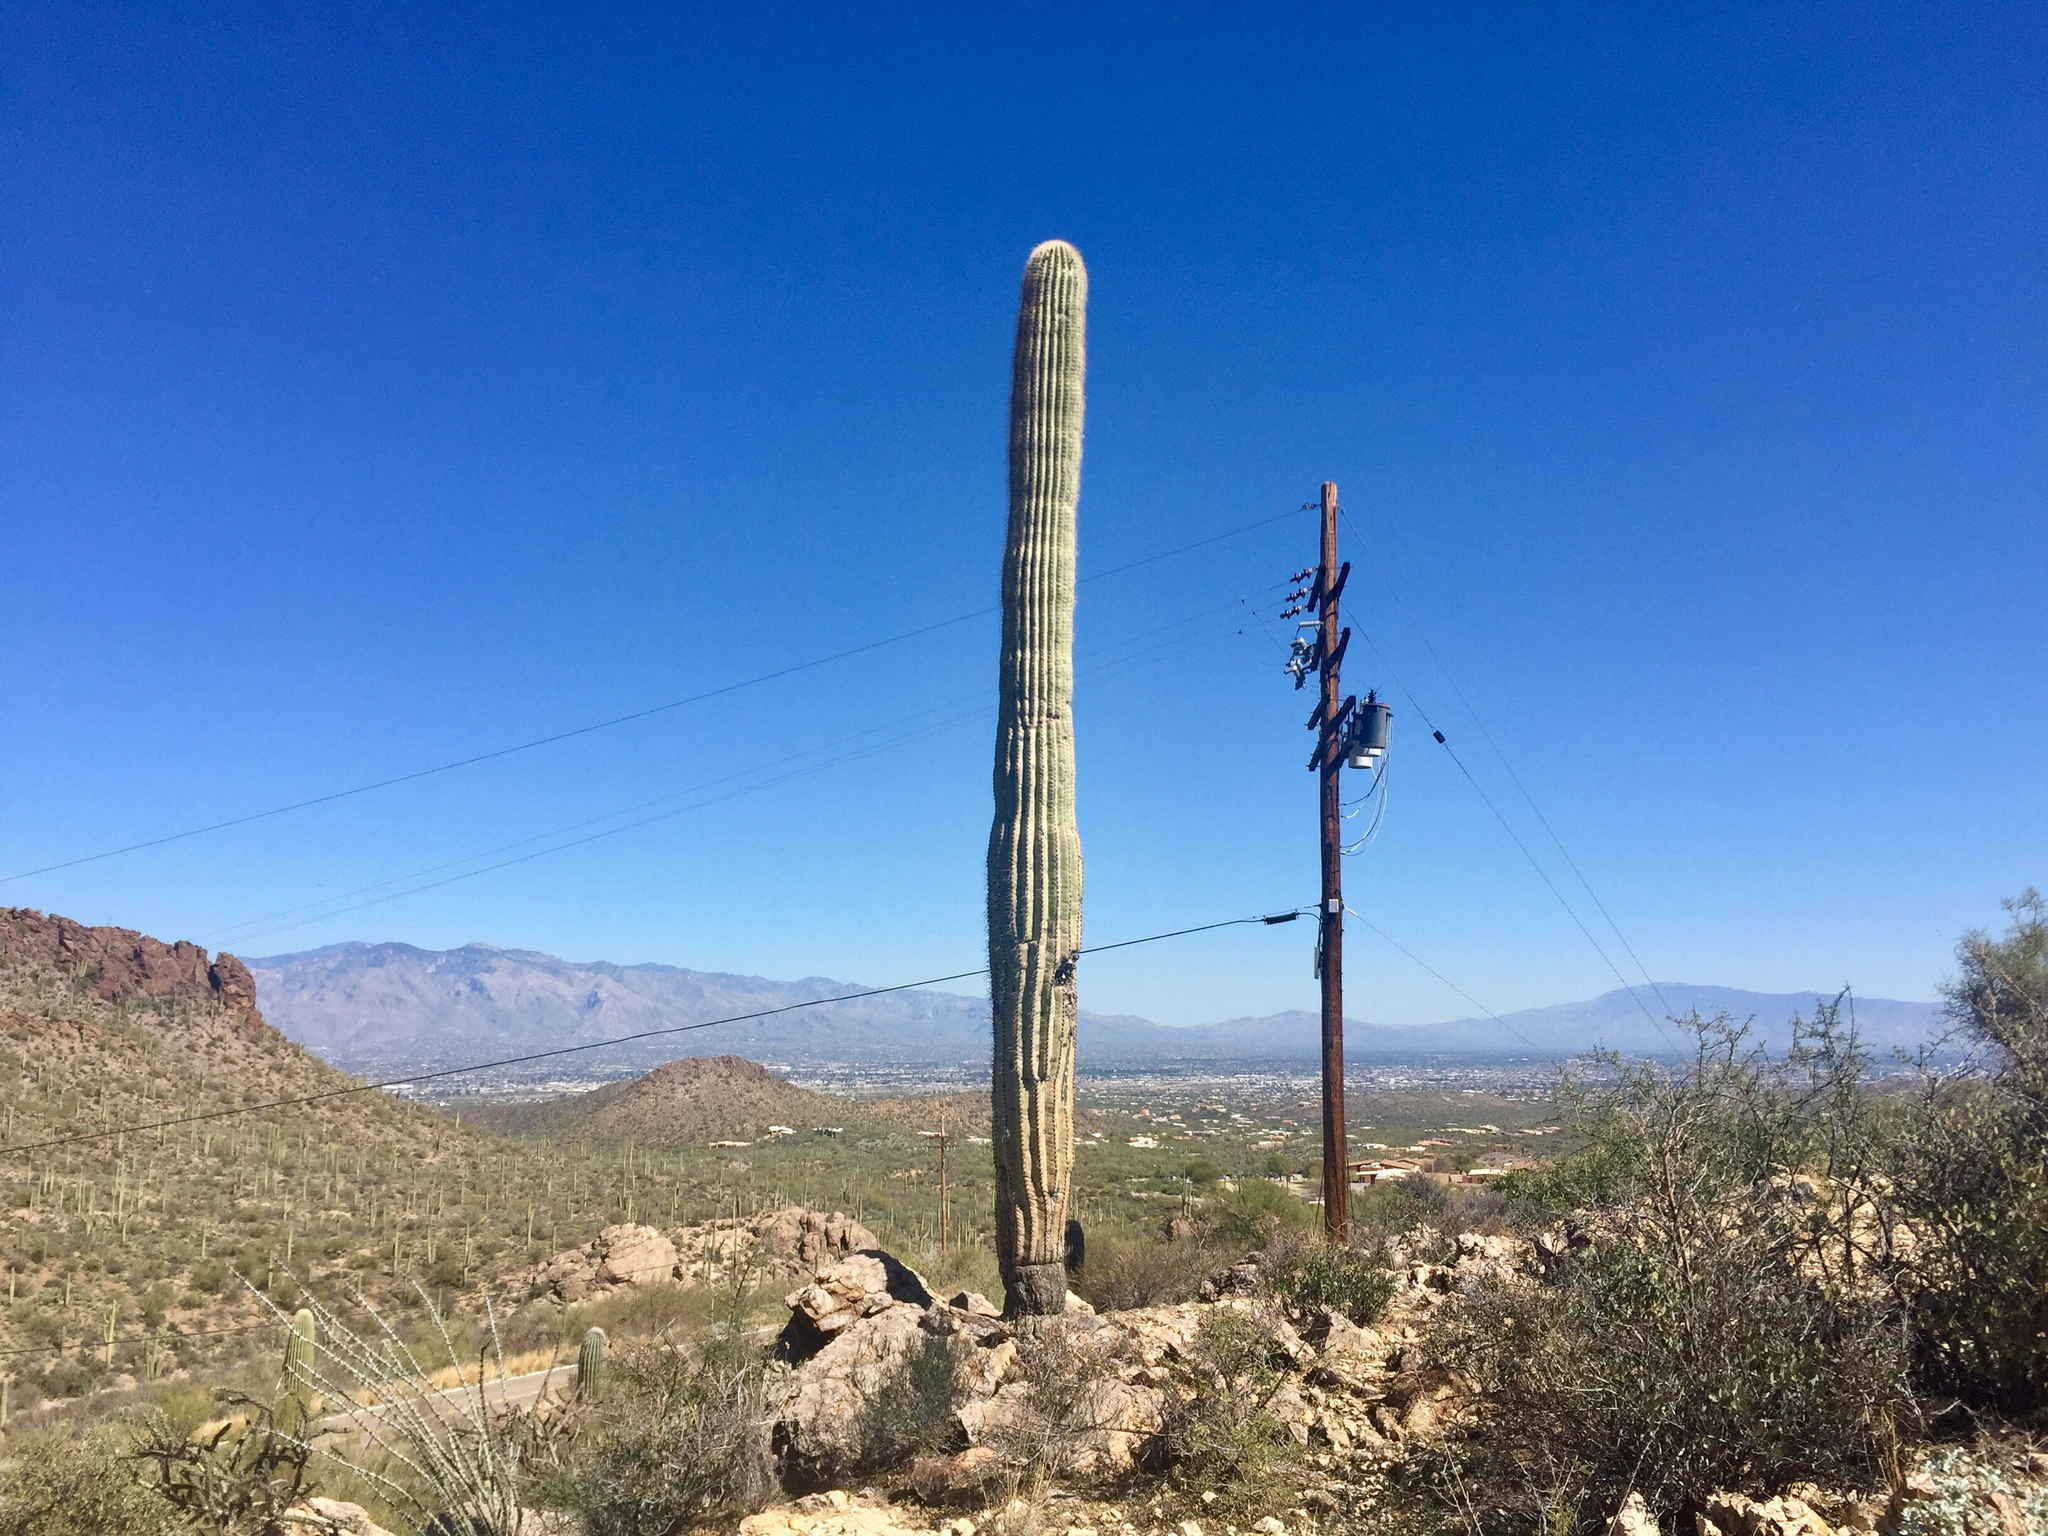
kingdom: Plantae
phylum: Tracheophyta
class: Magnoliopsida
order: Caryophyllales
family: Cactaceae
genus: Carnegiea
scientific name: Carnegiea gigantea
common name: Saguaro
